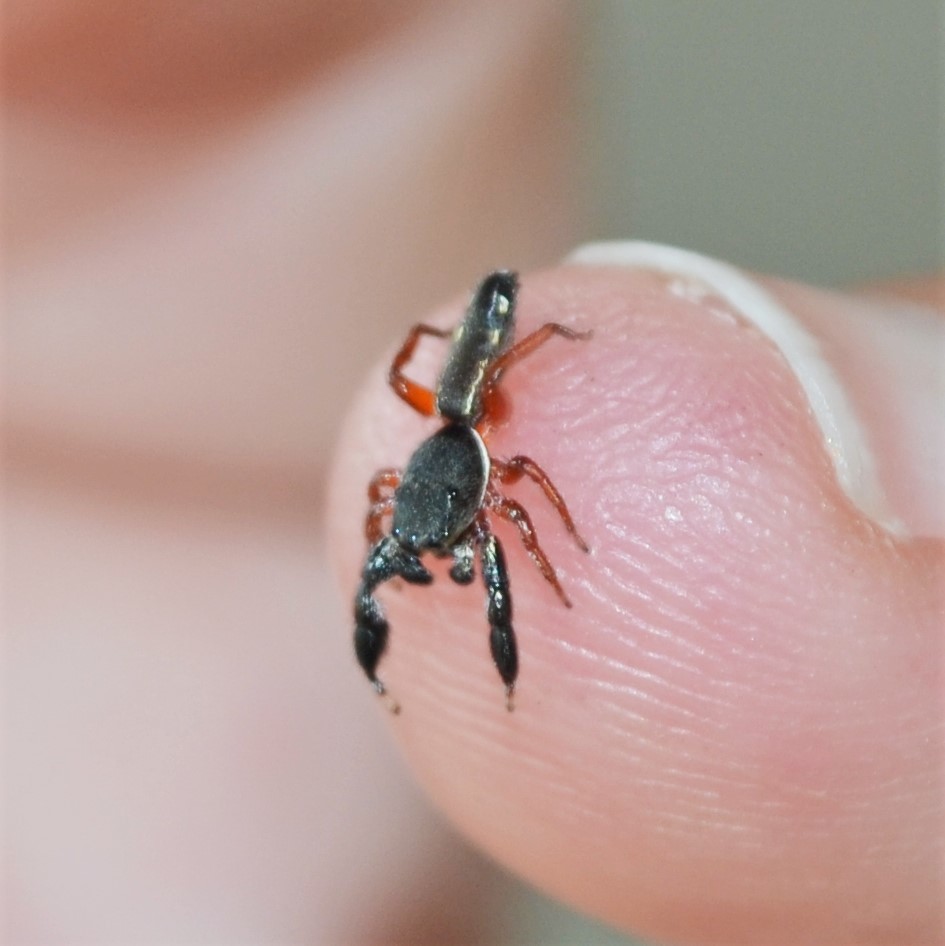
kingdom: Animalia
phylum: Arthropoda
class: Arachnida
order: Araneae
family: Salticidae
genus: Metacyrba
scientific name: Metacyrba floridana
